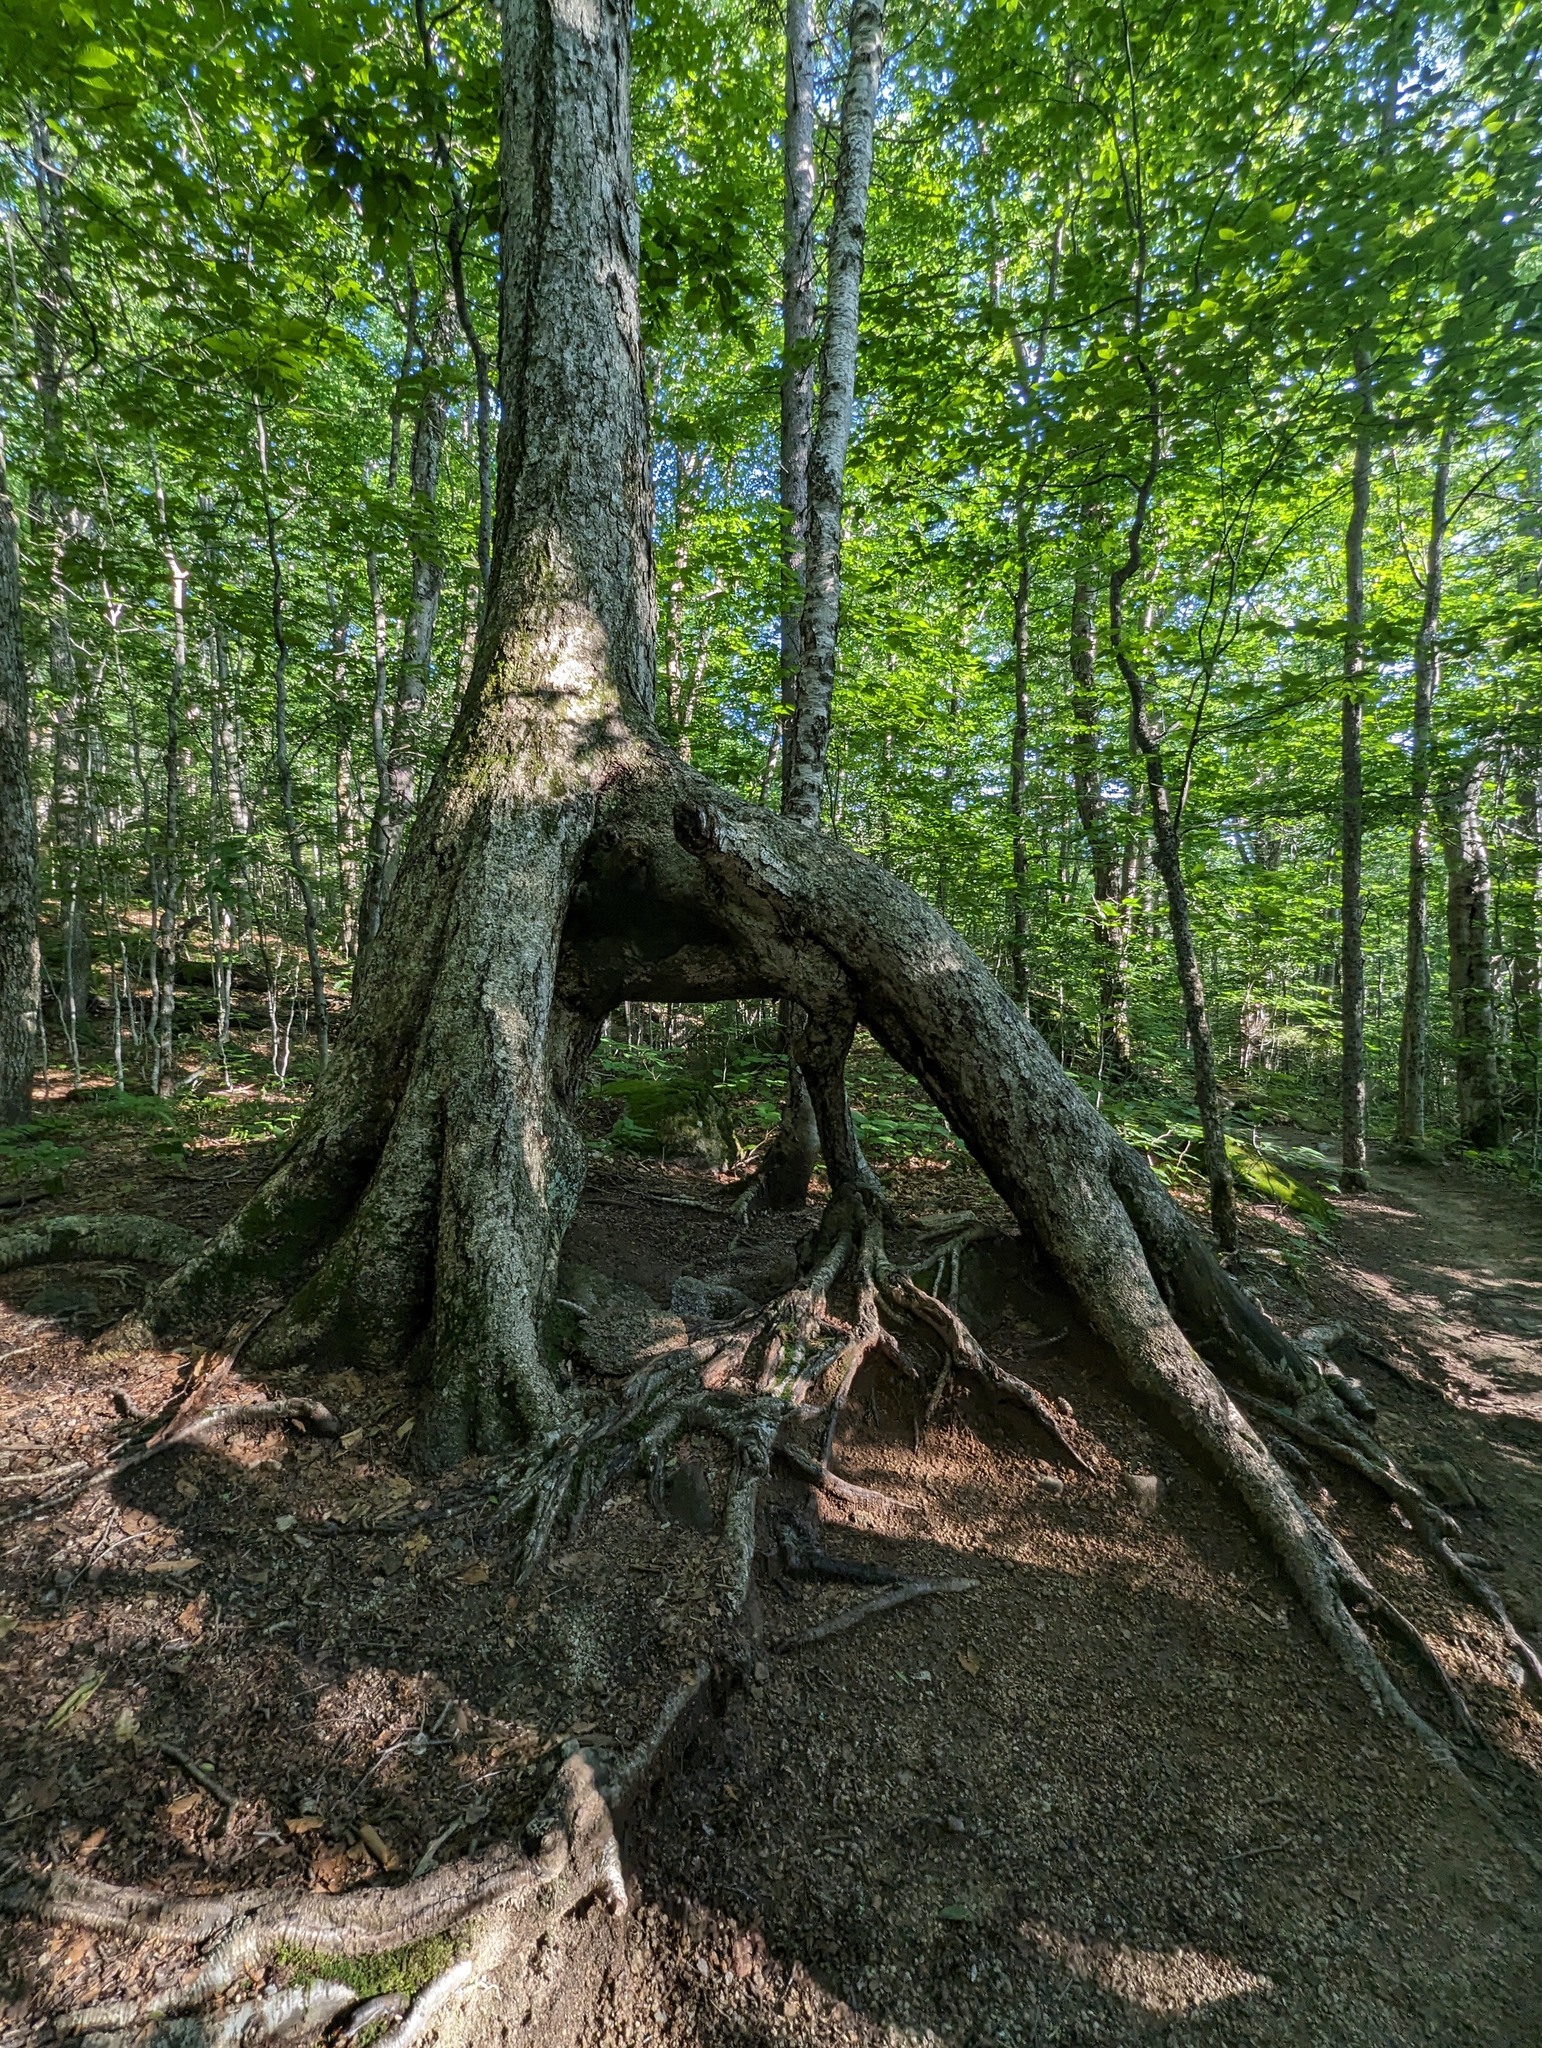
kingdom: Plantae
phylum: Tracheophyta
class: Magnoliopsida
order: Fagales
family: Betulaceae
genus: Betula
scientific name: Betula alleghaniensis
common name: Yellow birch
